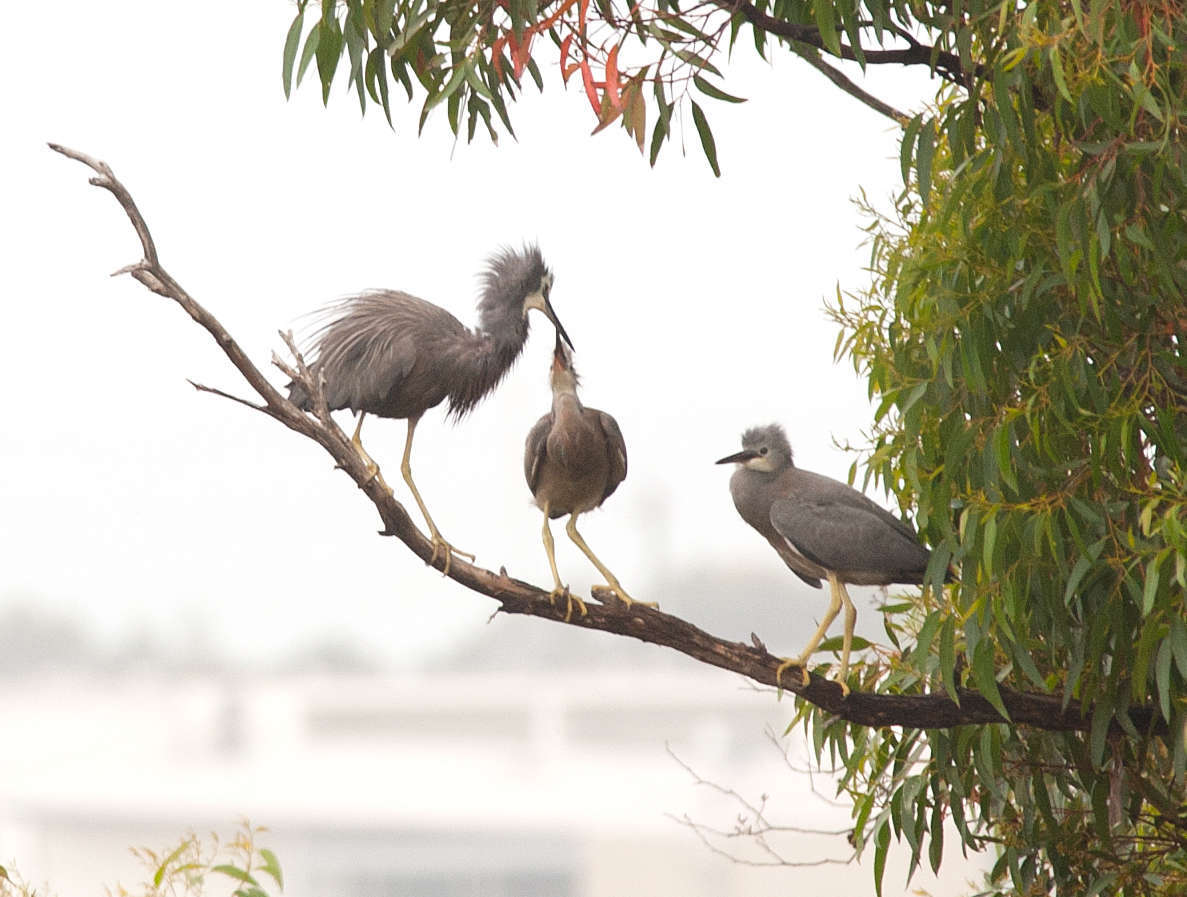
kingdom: Animalia
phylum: Chordata
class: Aves
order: Pelecaniformes
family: Ardeidae
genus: Egretta
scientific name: Egretta novaehollandiae
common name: White-faced heron
